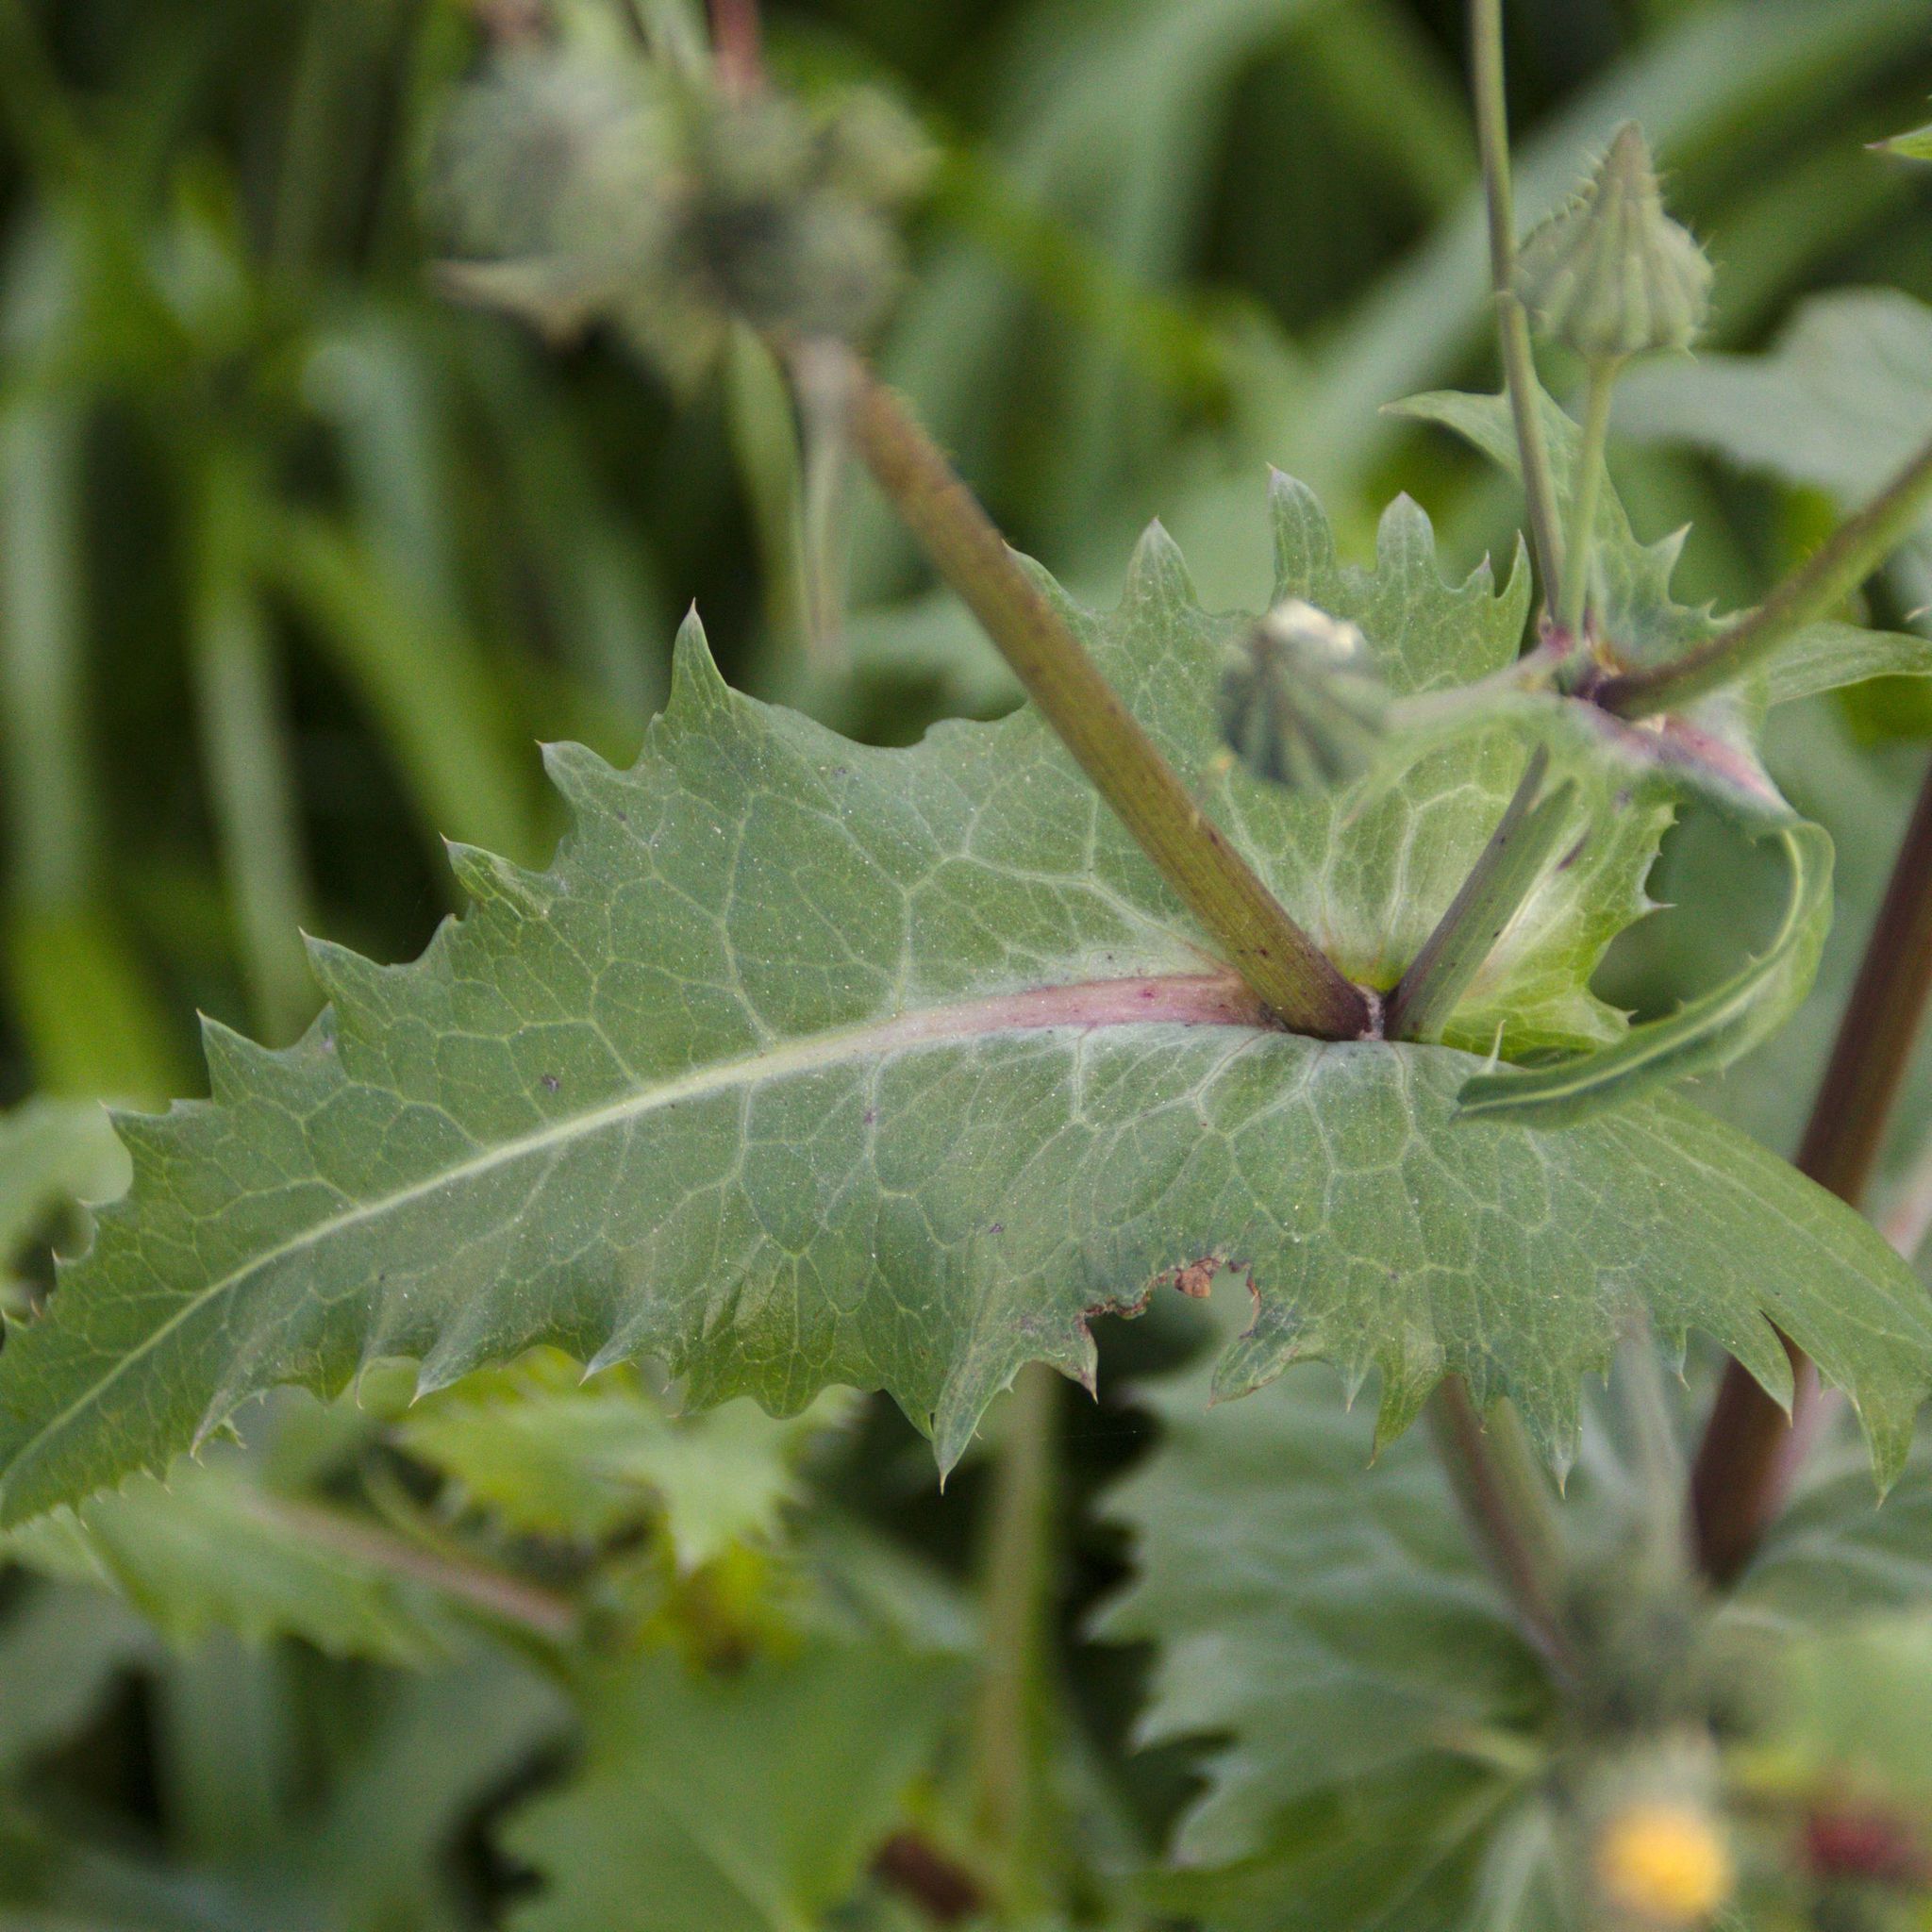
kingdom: Plantae
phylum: Tracheophyta
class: Magnoliopsida
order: Asterales
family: Asteraceae
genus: Sonchus
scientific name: Sonchus oleraceus
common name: Common sowthistle
